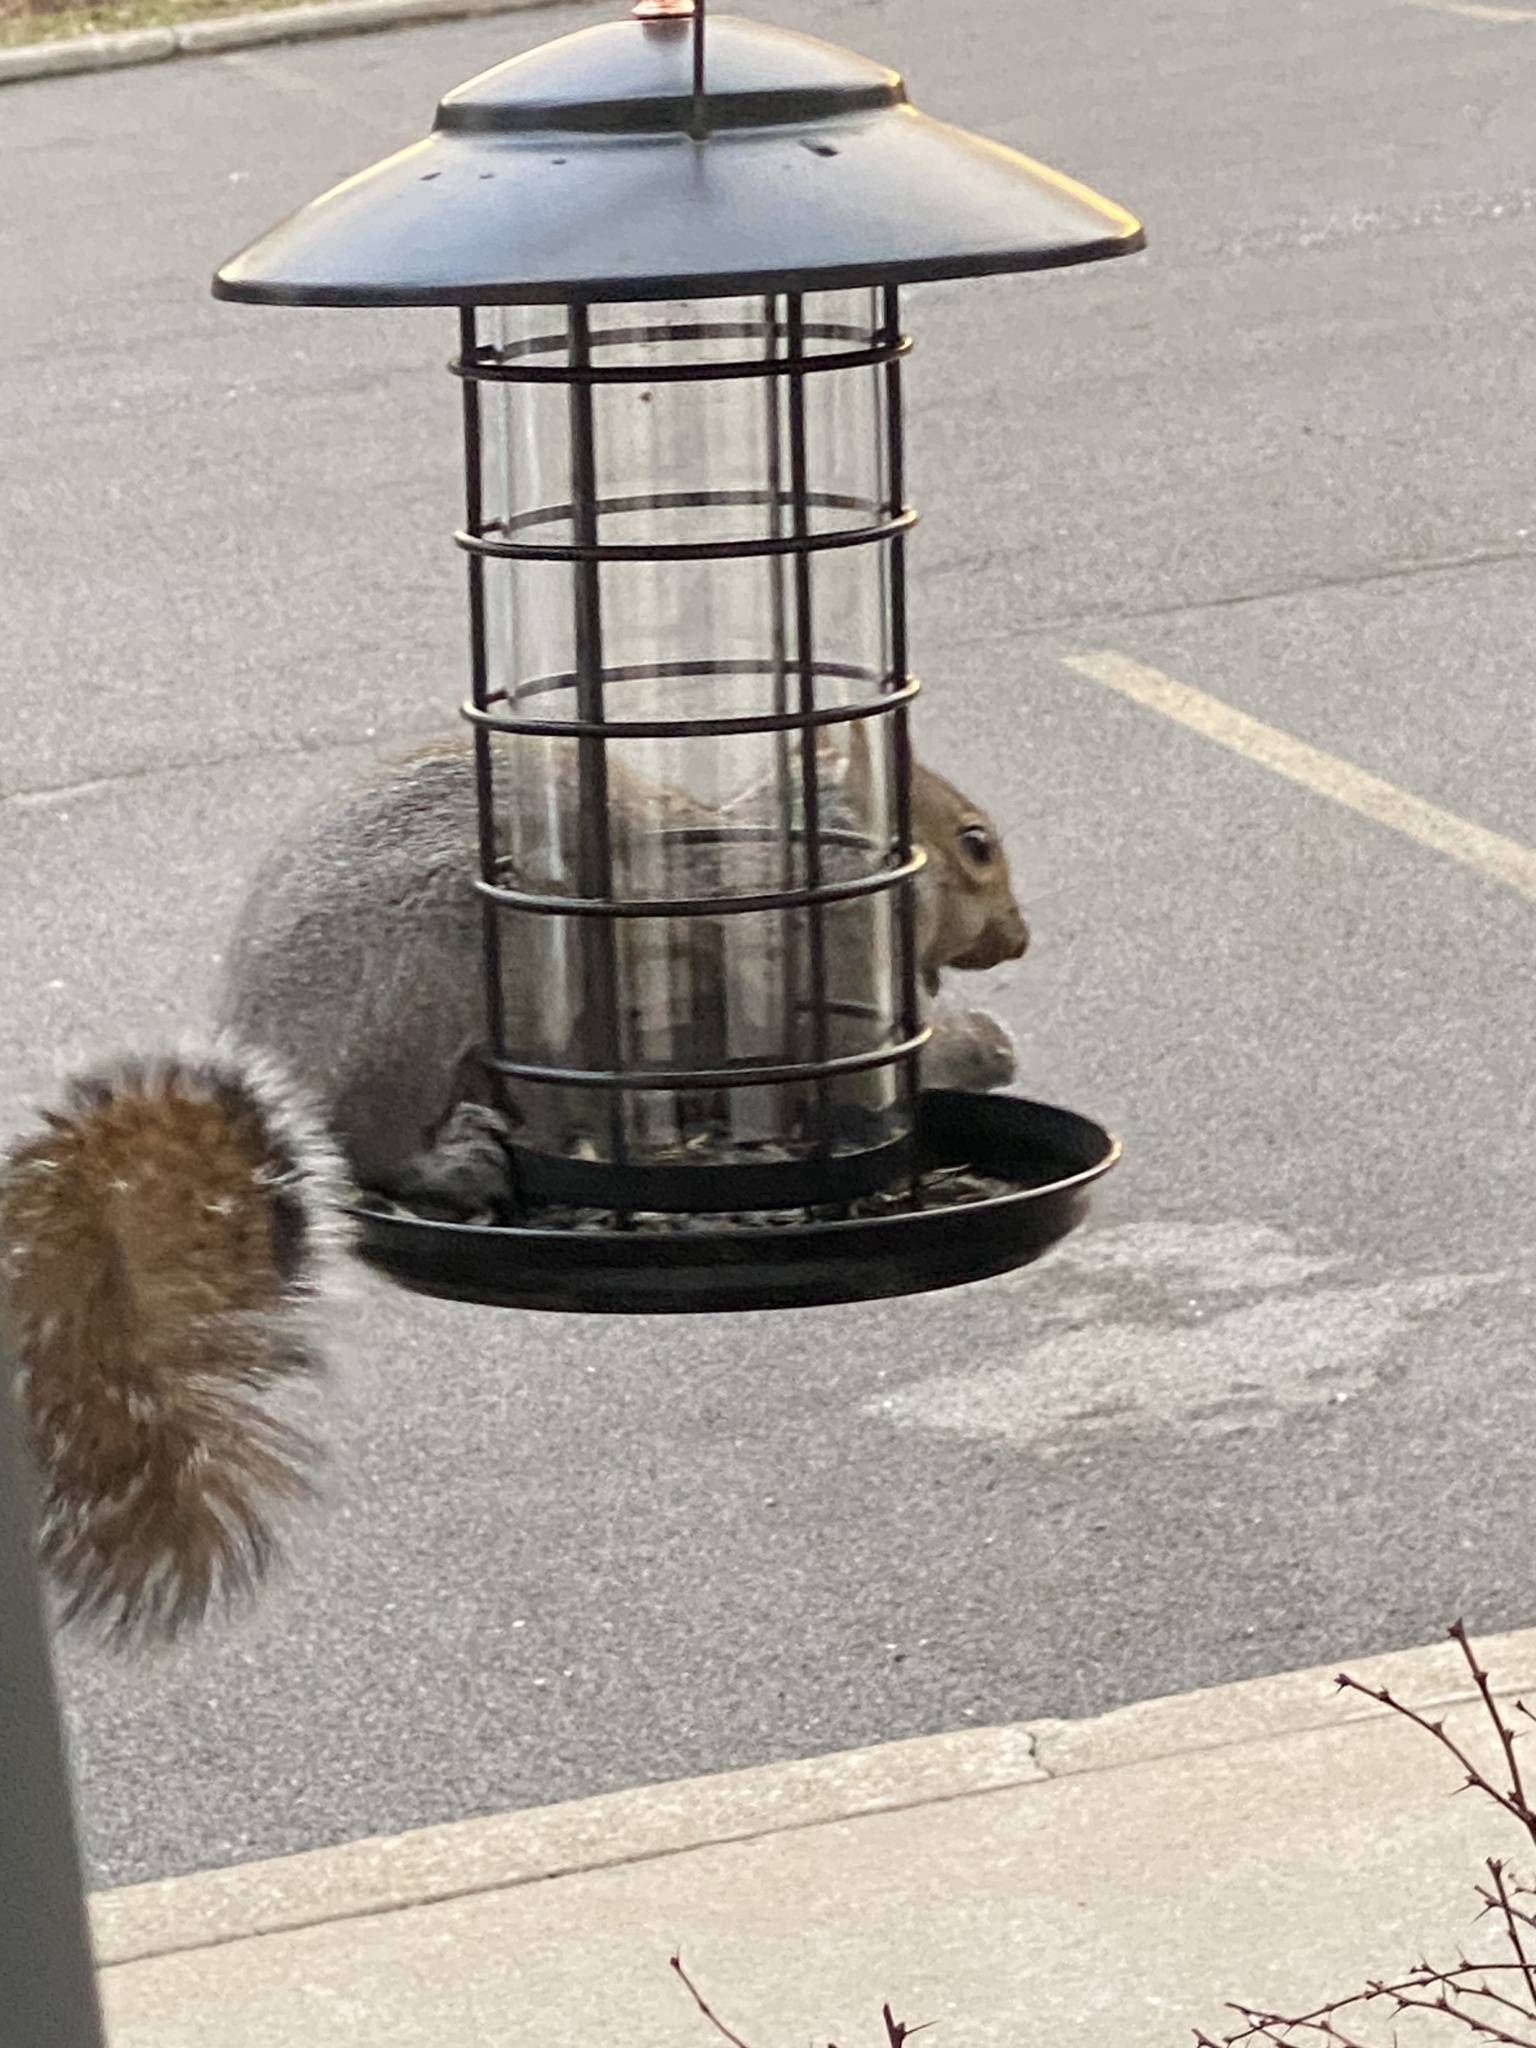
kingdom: Animalia
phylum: Chordata
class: Mammalia
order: Rodentia
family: Sciuridae
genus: Sciurus
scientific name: Sciurus carolinensis
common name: Eastern gray squirrel
